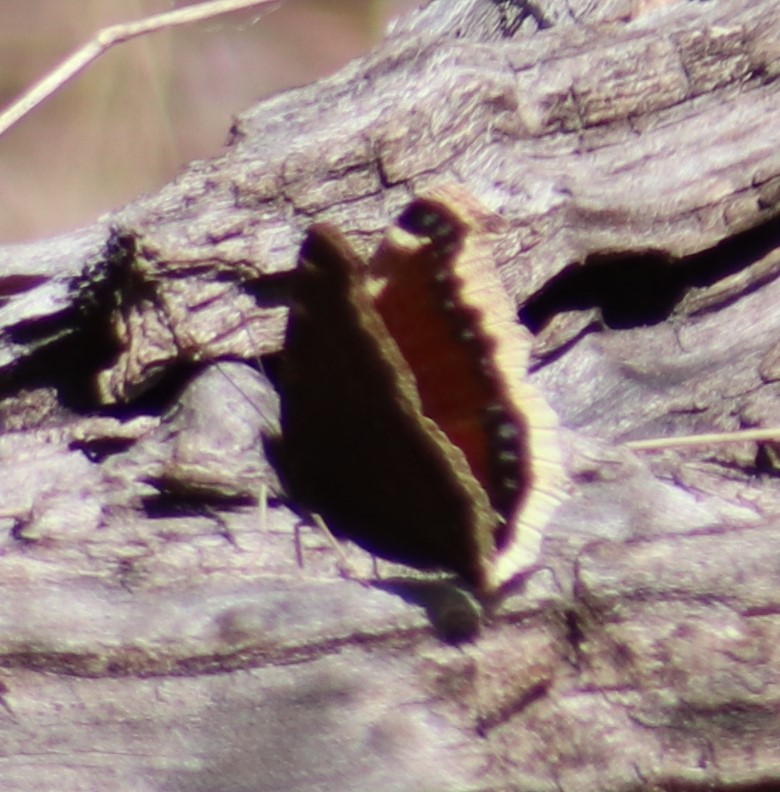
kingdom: Animalia
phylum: Arthropoda
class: Insecta
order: Lepidoptera
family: Nymphalidae
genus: Nymphalis
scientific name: Nymphalis antiopa
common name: Camberwell beauty
